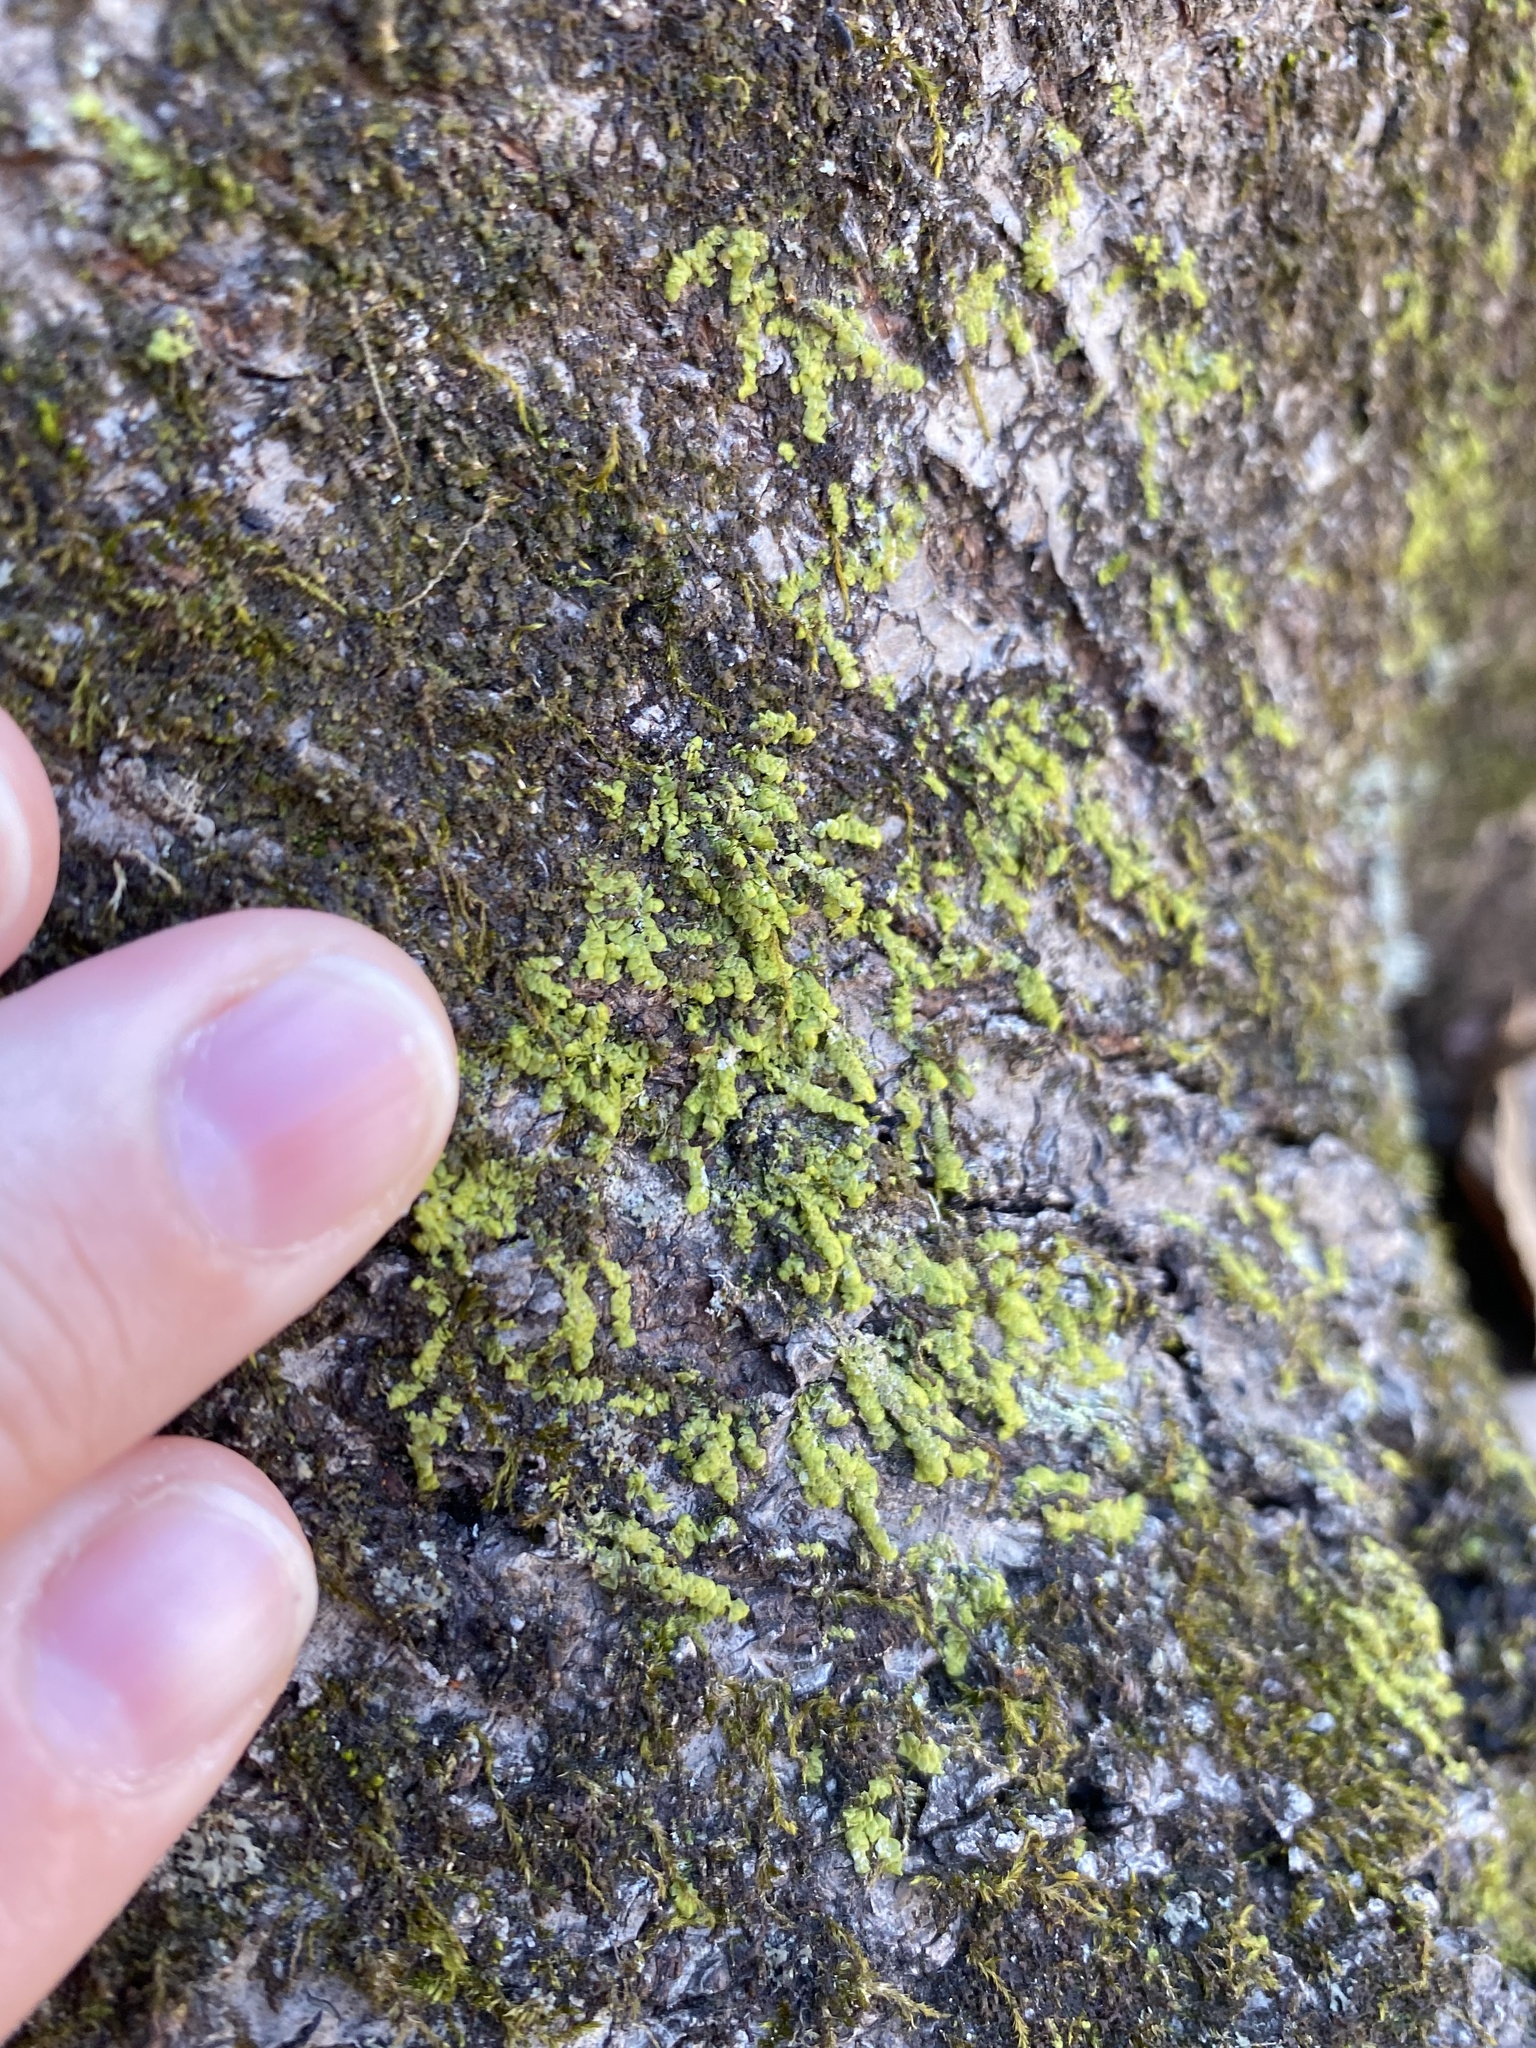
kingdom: Plantae
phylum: Marchantiophyta
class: Jungermanniopsida
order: Porellales
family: Radulaceae
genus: Radula
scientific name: Radula complanata
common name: Flat-leaved scalewort
